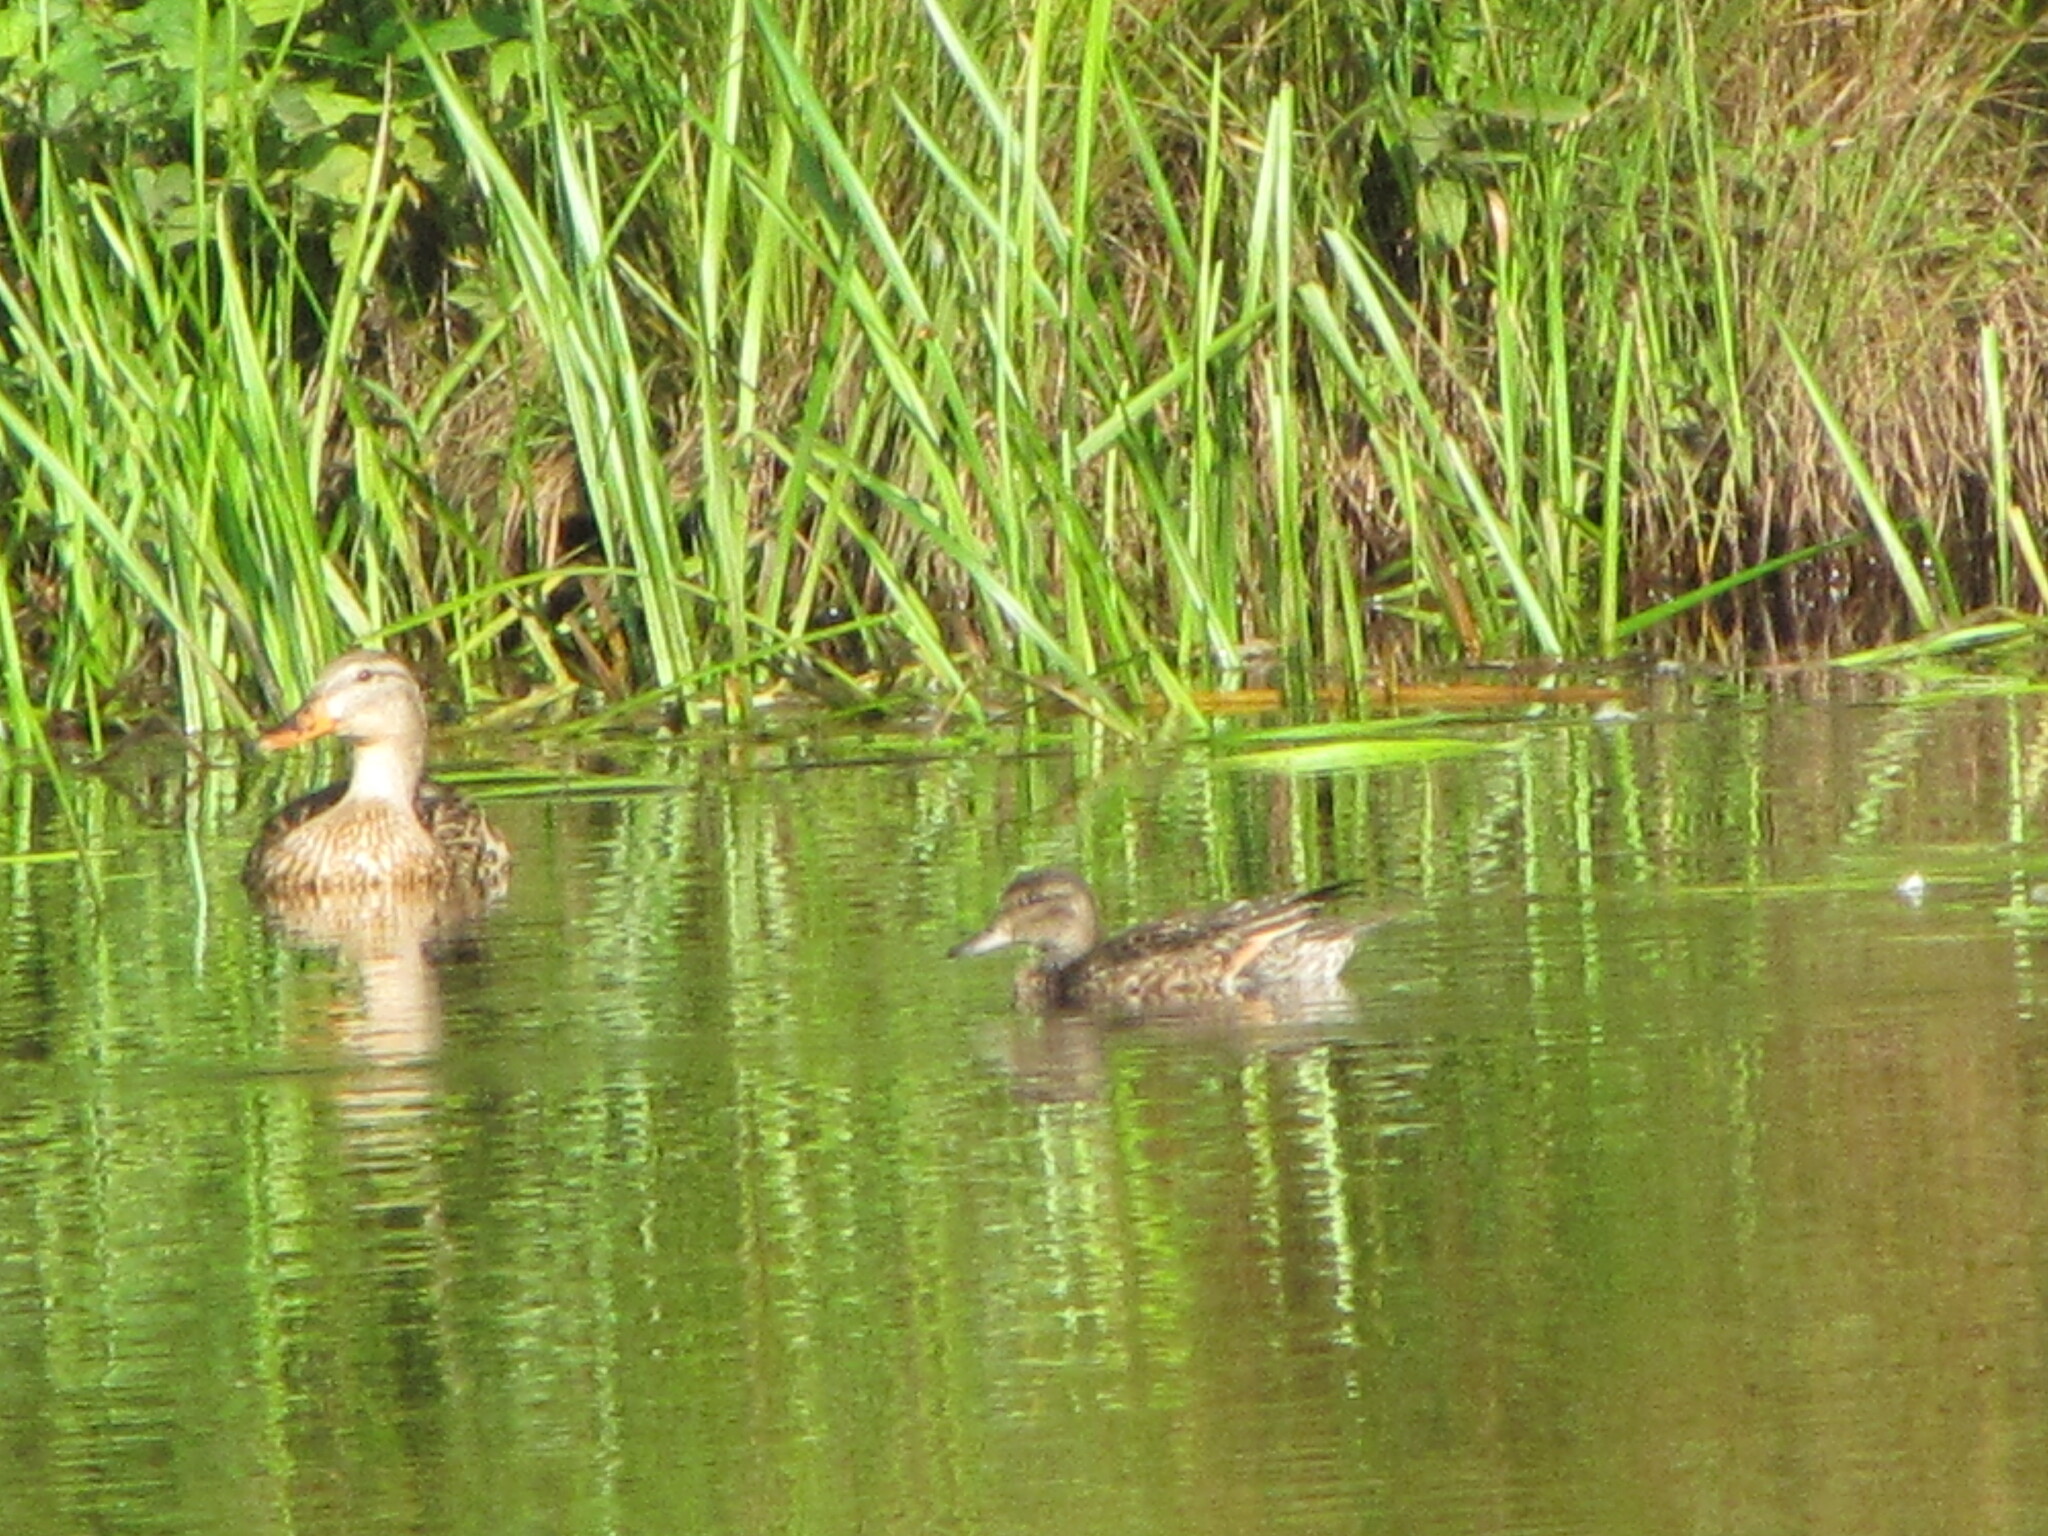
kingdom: Animalia
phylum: Chordata
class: Aves
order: Anseriformes
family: Anatidae
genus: Anas
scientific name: Anas platyrhynchos
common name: Mallard
